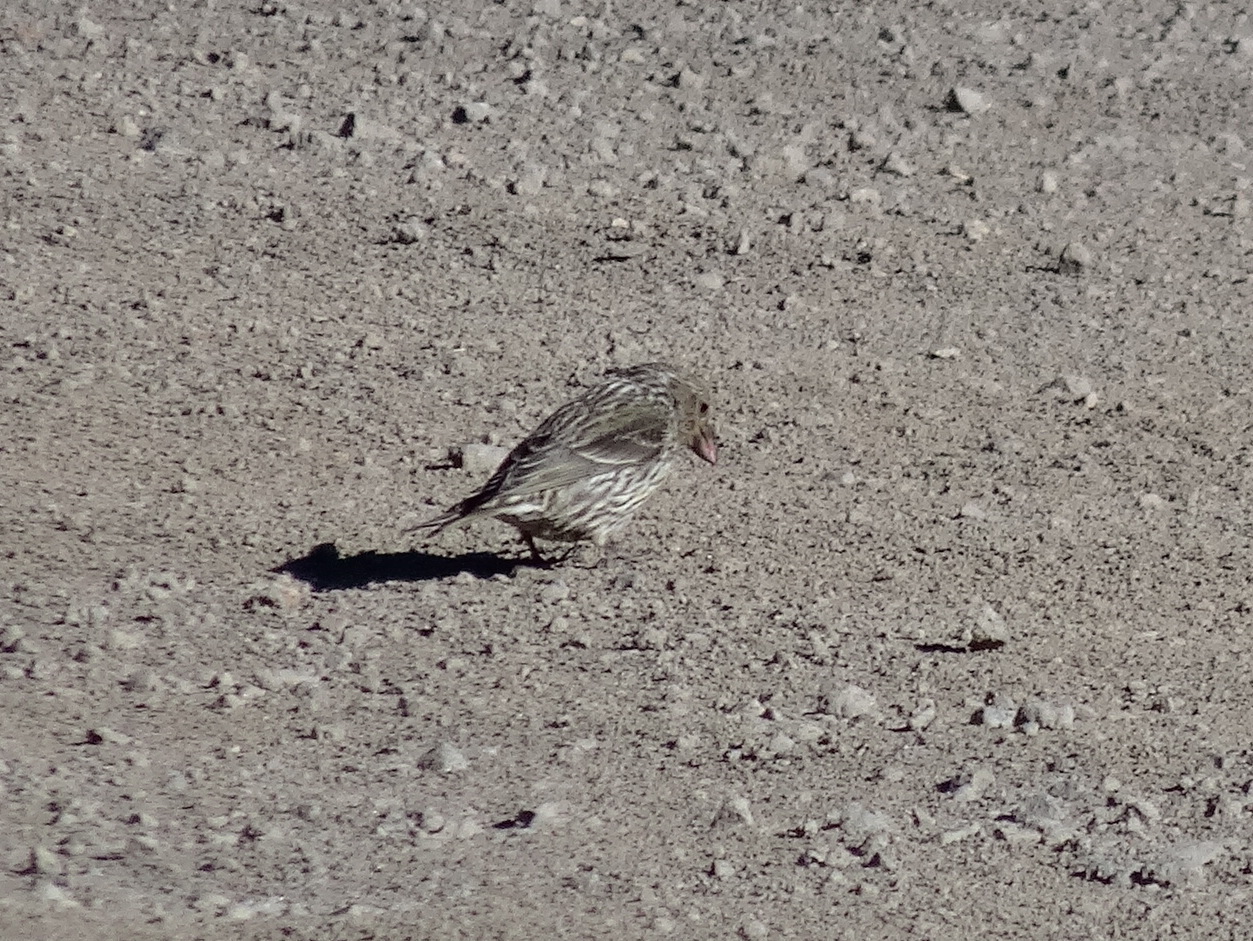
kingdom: Animalia
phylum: Chordata
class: Aves
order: Passeriformes
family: Fringillidae
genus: Haemorhous
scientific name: Haemorhous cassinii
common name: Cassin's finch
